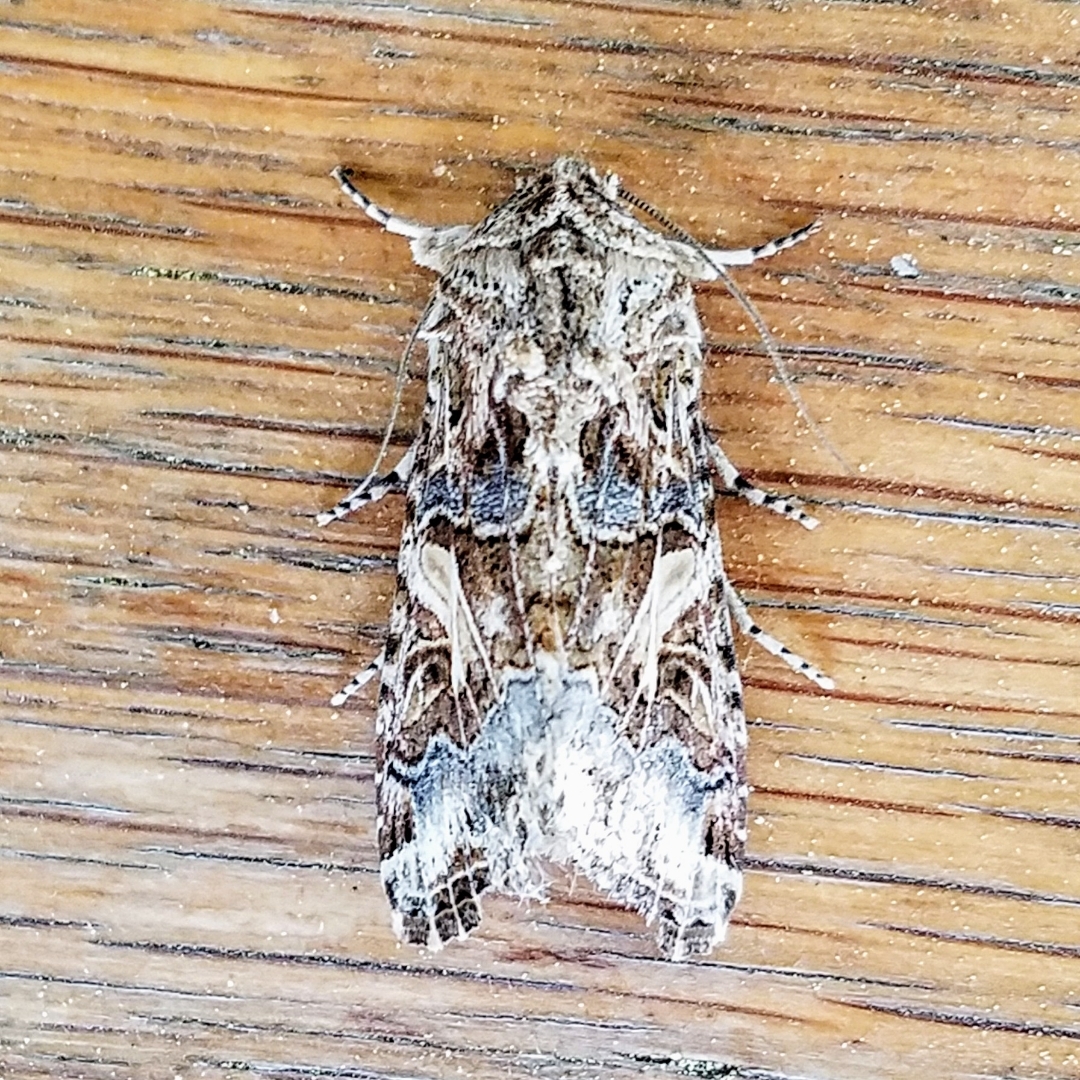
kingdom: Animalia
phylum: Arthropoda
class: Insecta
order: Lepidoptera
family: Noctuidae
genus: Spodoptera
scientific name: Spodoptera praefica
